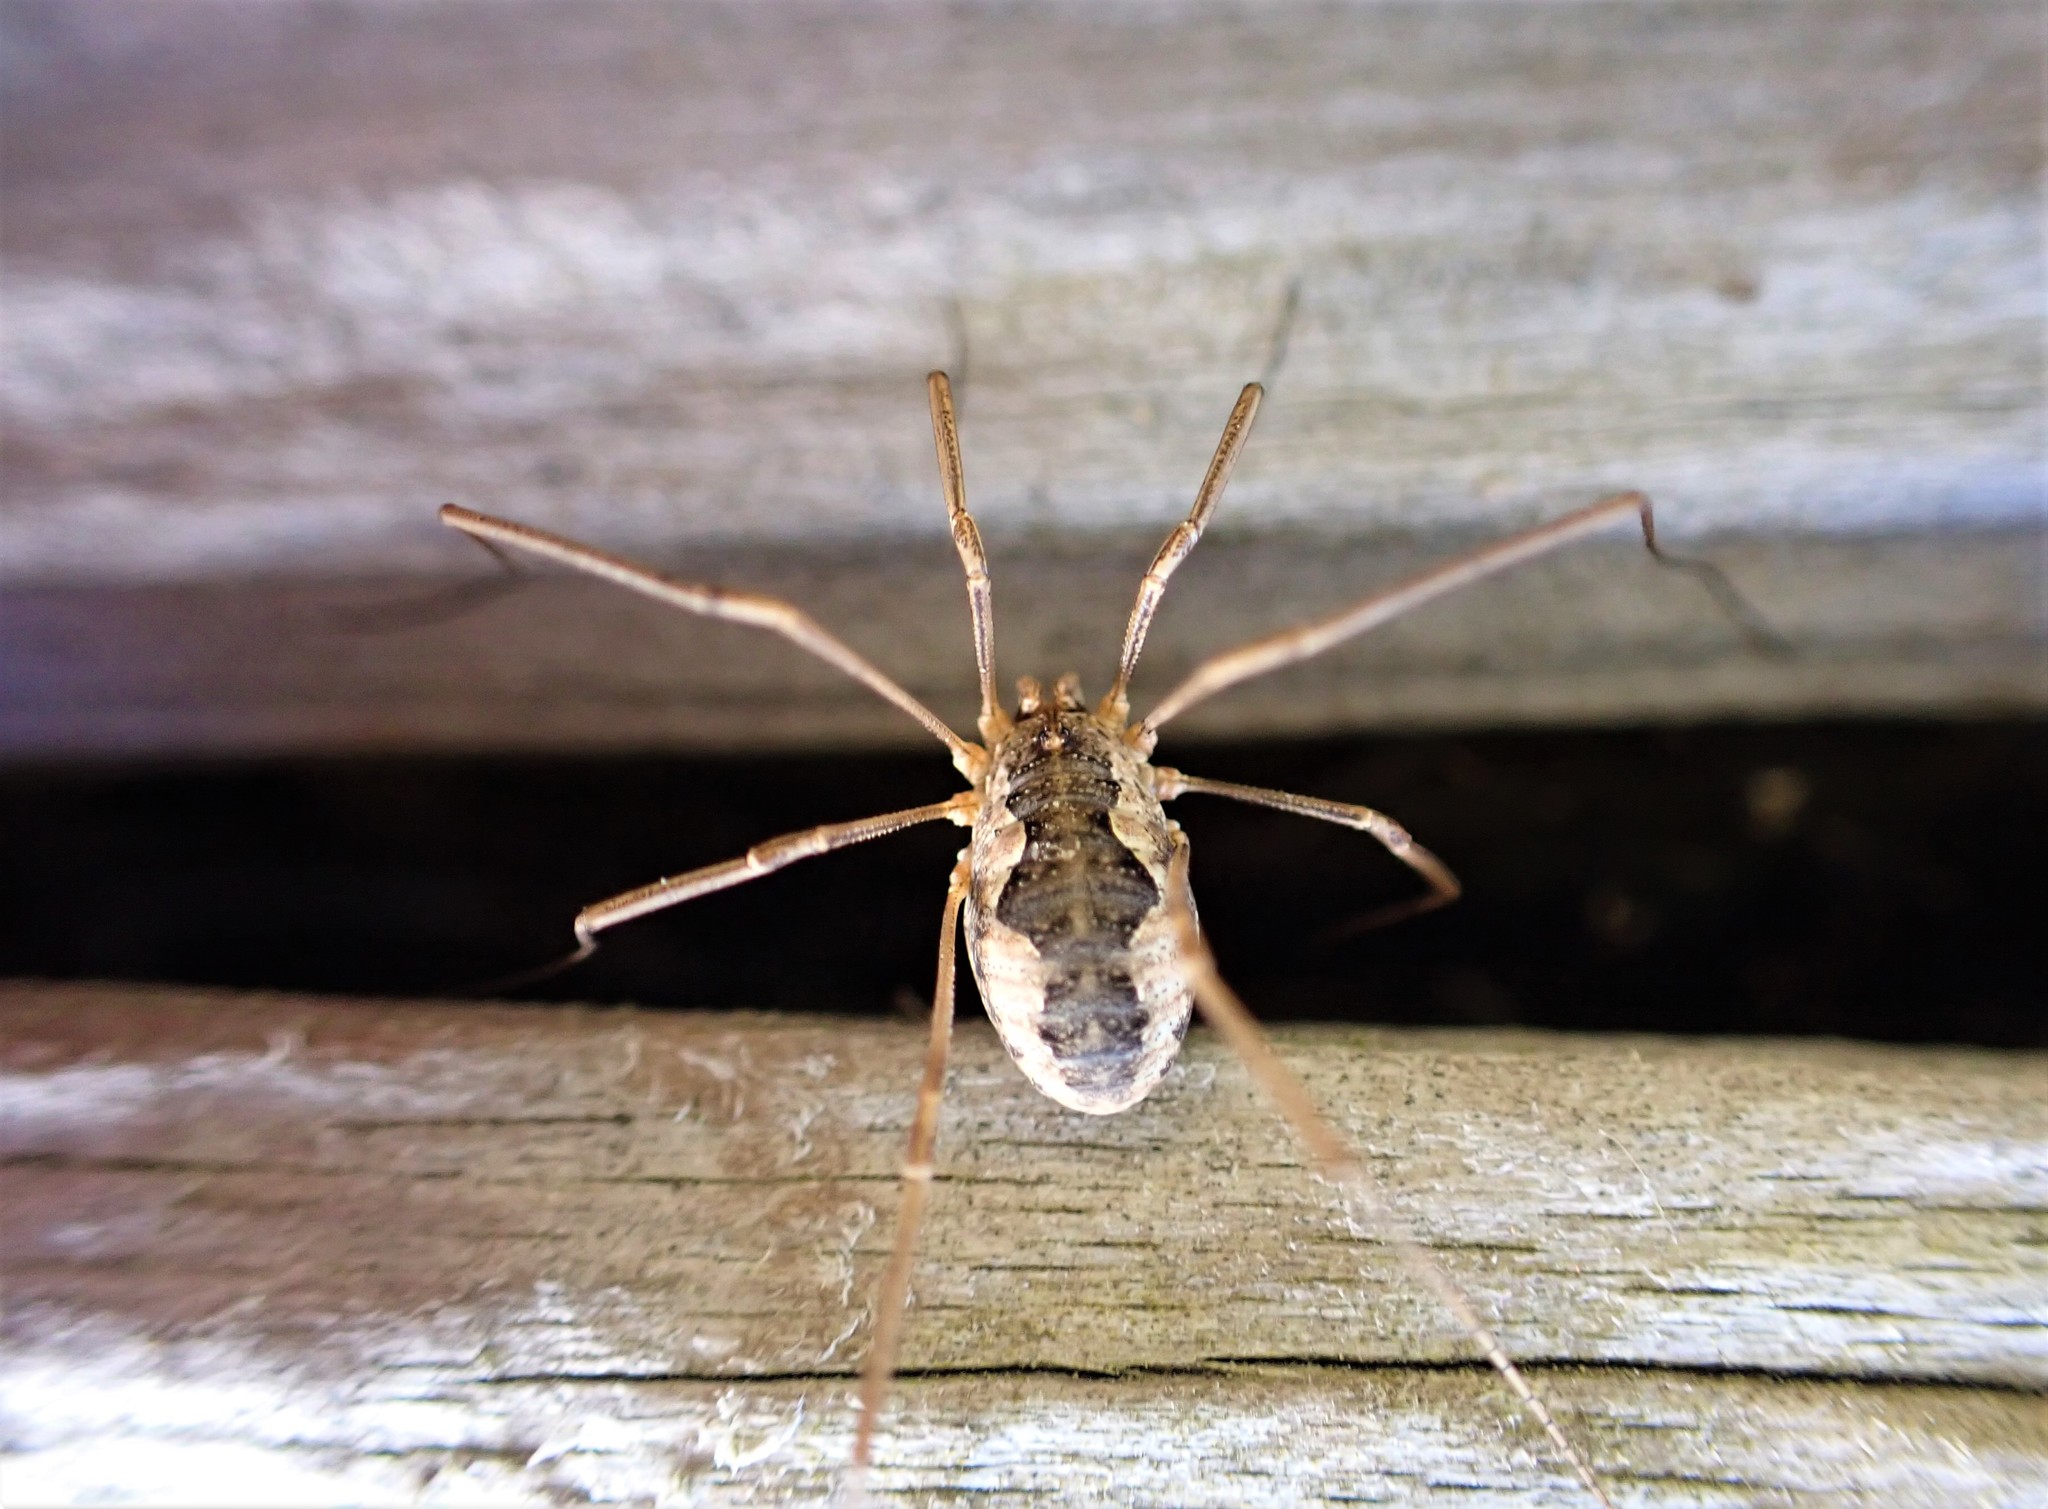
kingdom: Animalia
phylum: Arthropoda
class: Arachnida
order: Opiliones
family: Phalangiidae
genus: Phalangium
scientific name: Phalangium opilio
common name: Daddy longleg
